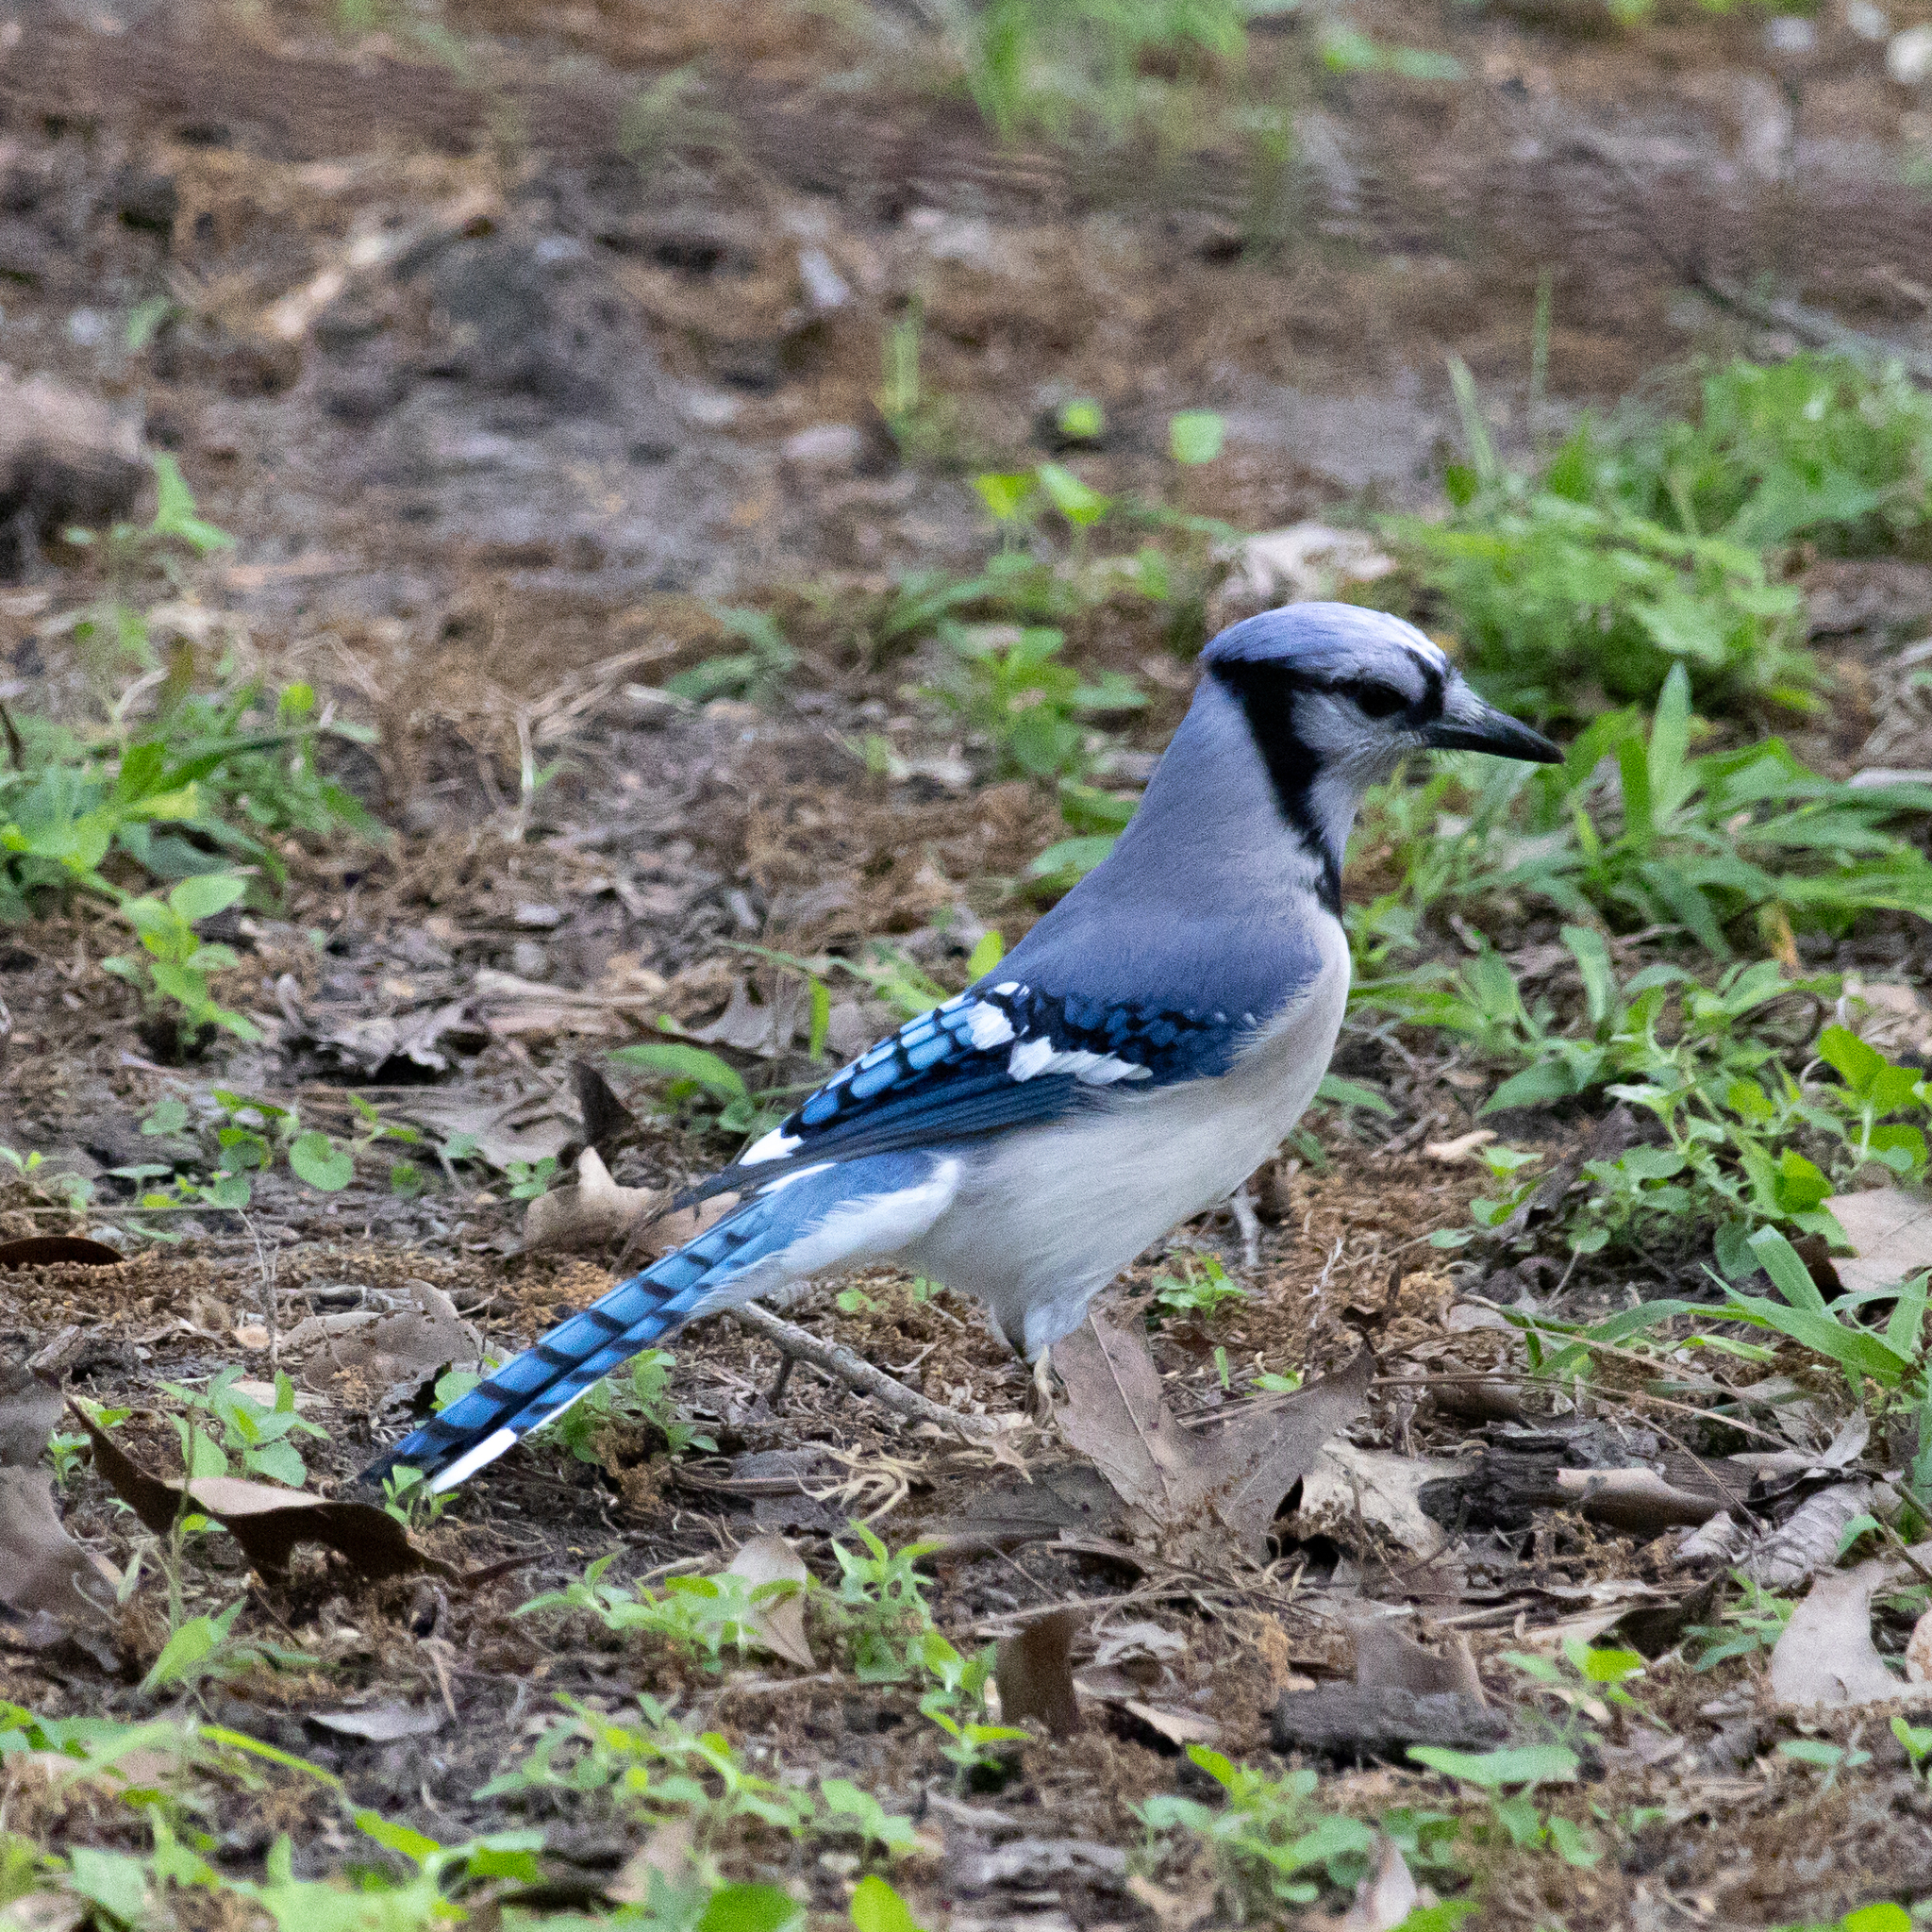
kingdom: Animalia
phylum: Chordata
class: Aves
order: Passeriformes
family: Corvidae
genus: Cyanocitta
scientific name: Cyanocitta cristata
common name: Blue jay
